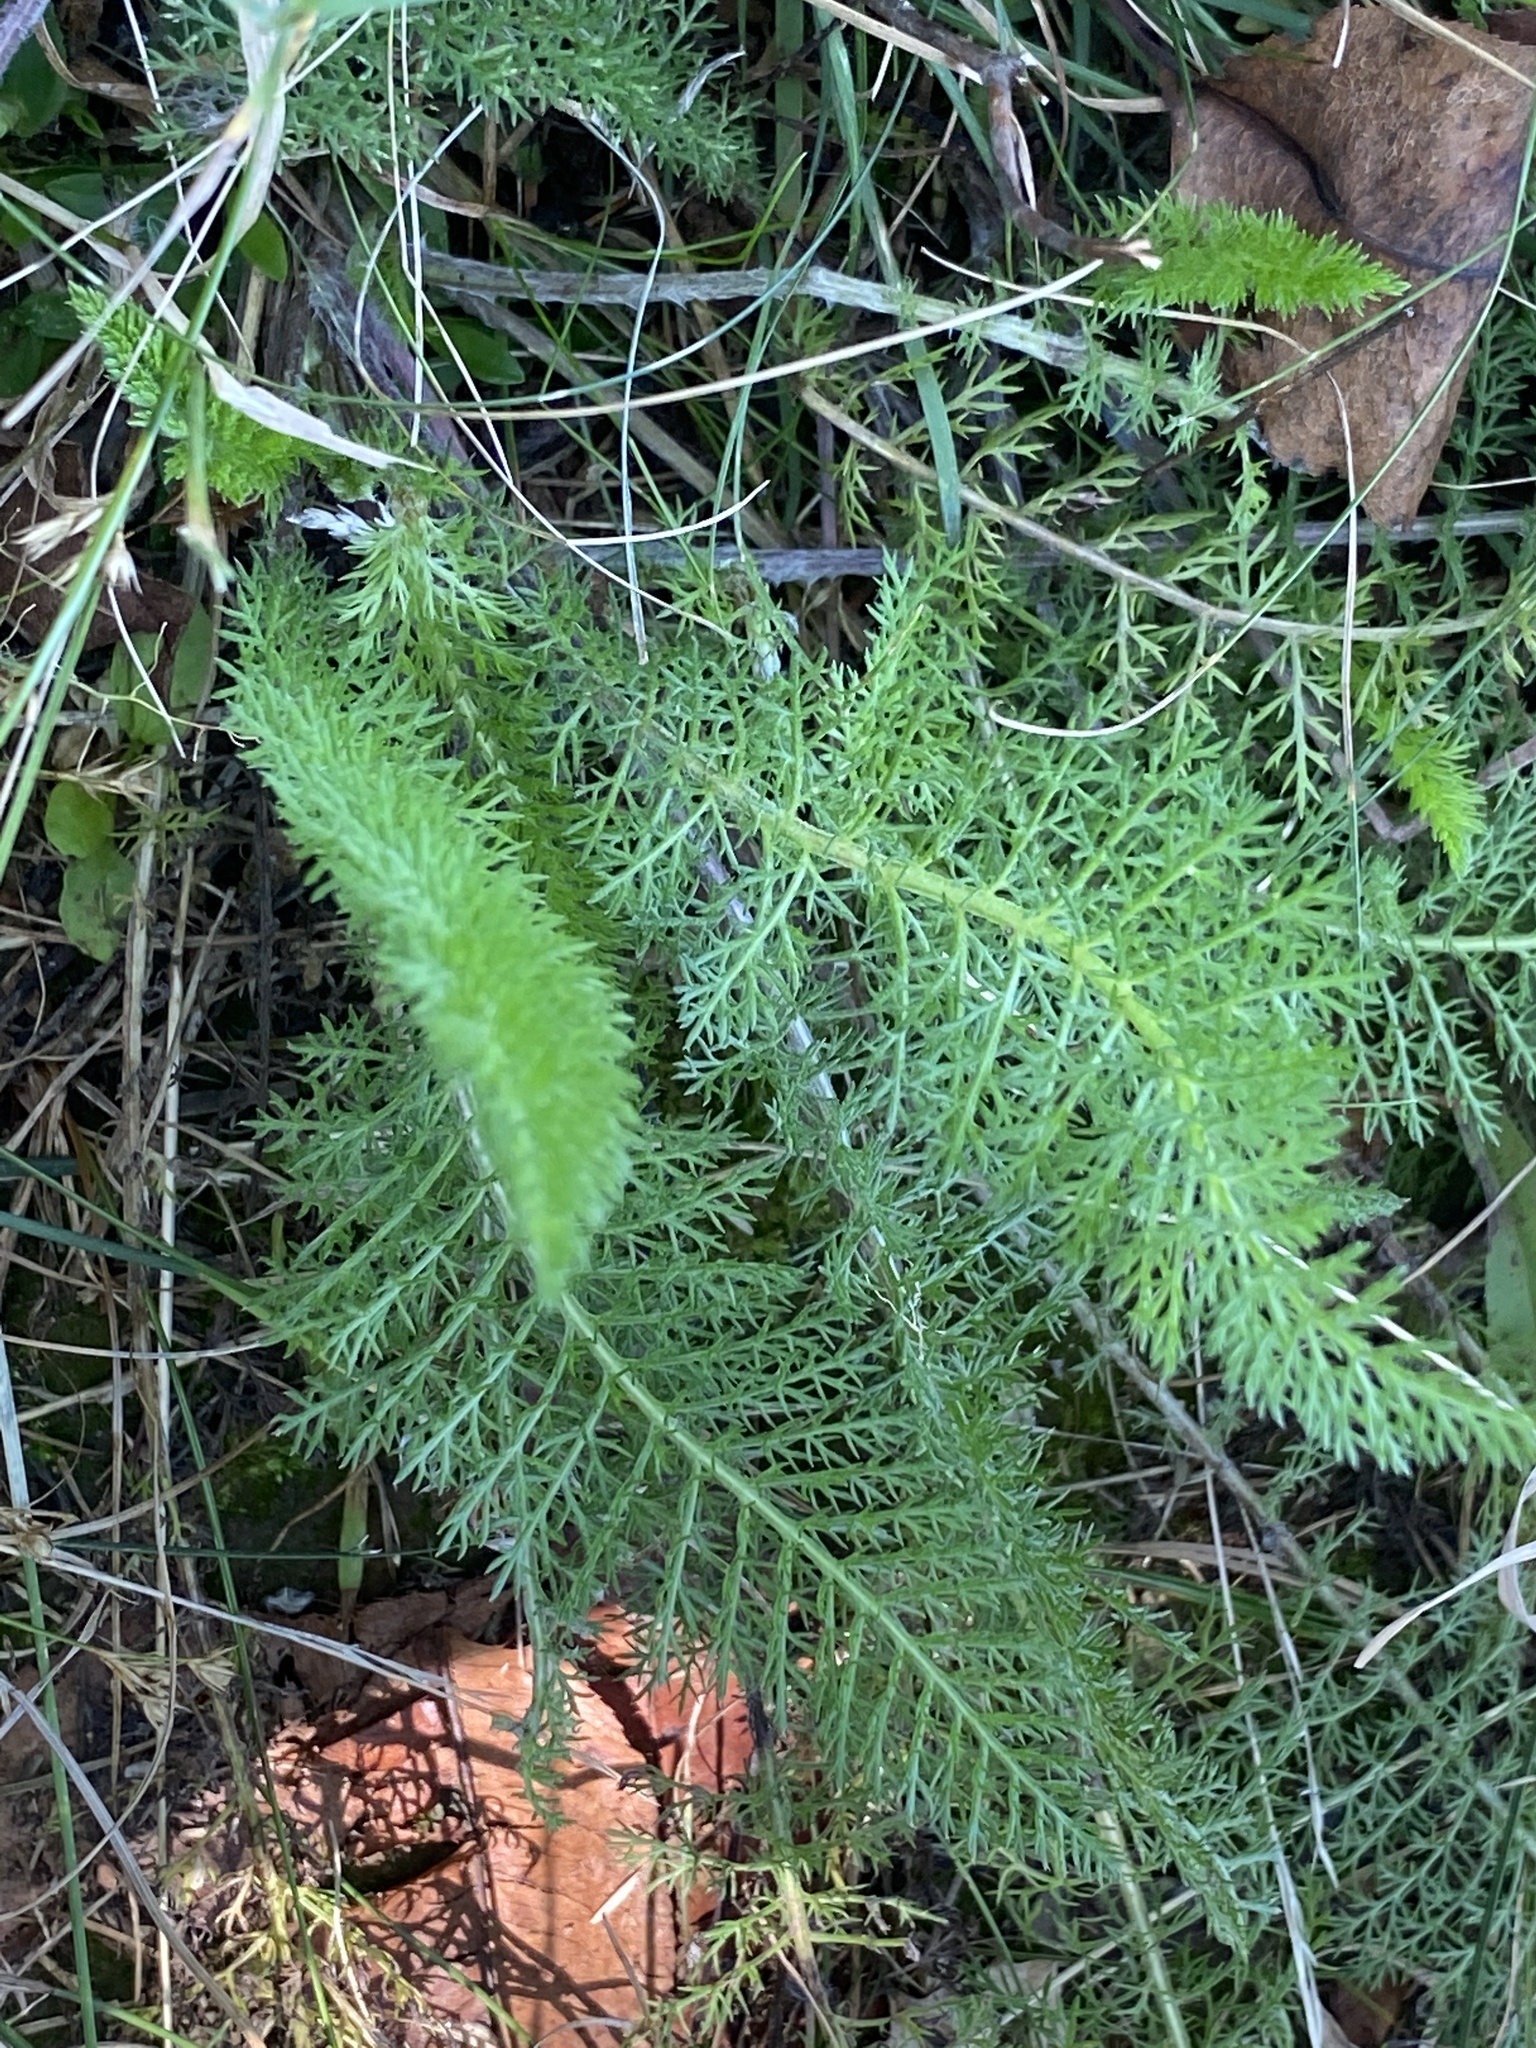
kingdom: Plantae
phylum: Tracheophyta
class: Magnoliopsida
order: Asterales
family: Asteraceae
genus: Achillea
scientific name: Achillea millefolium
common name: Yarrow
